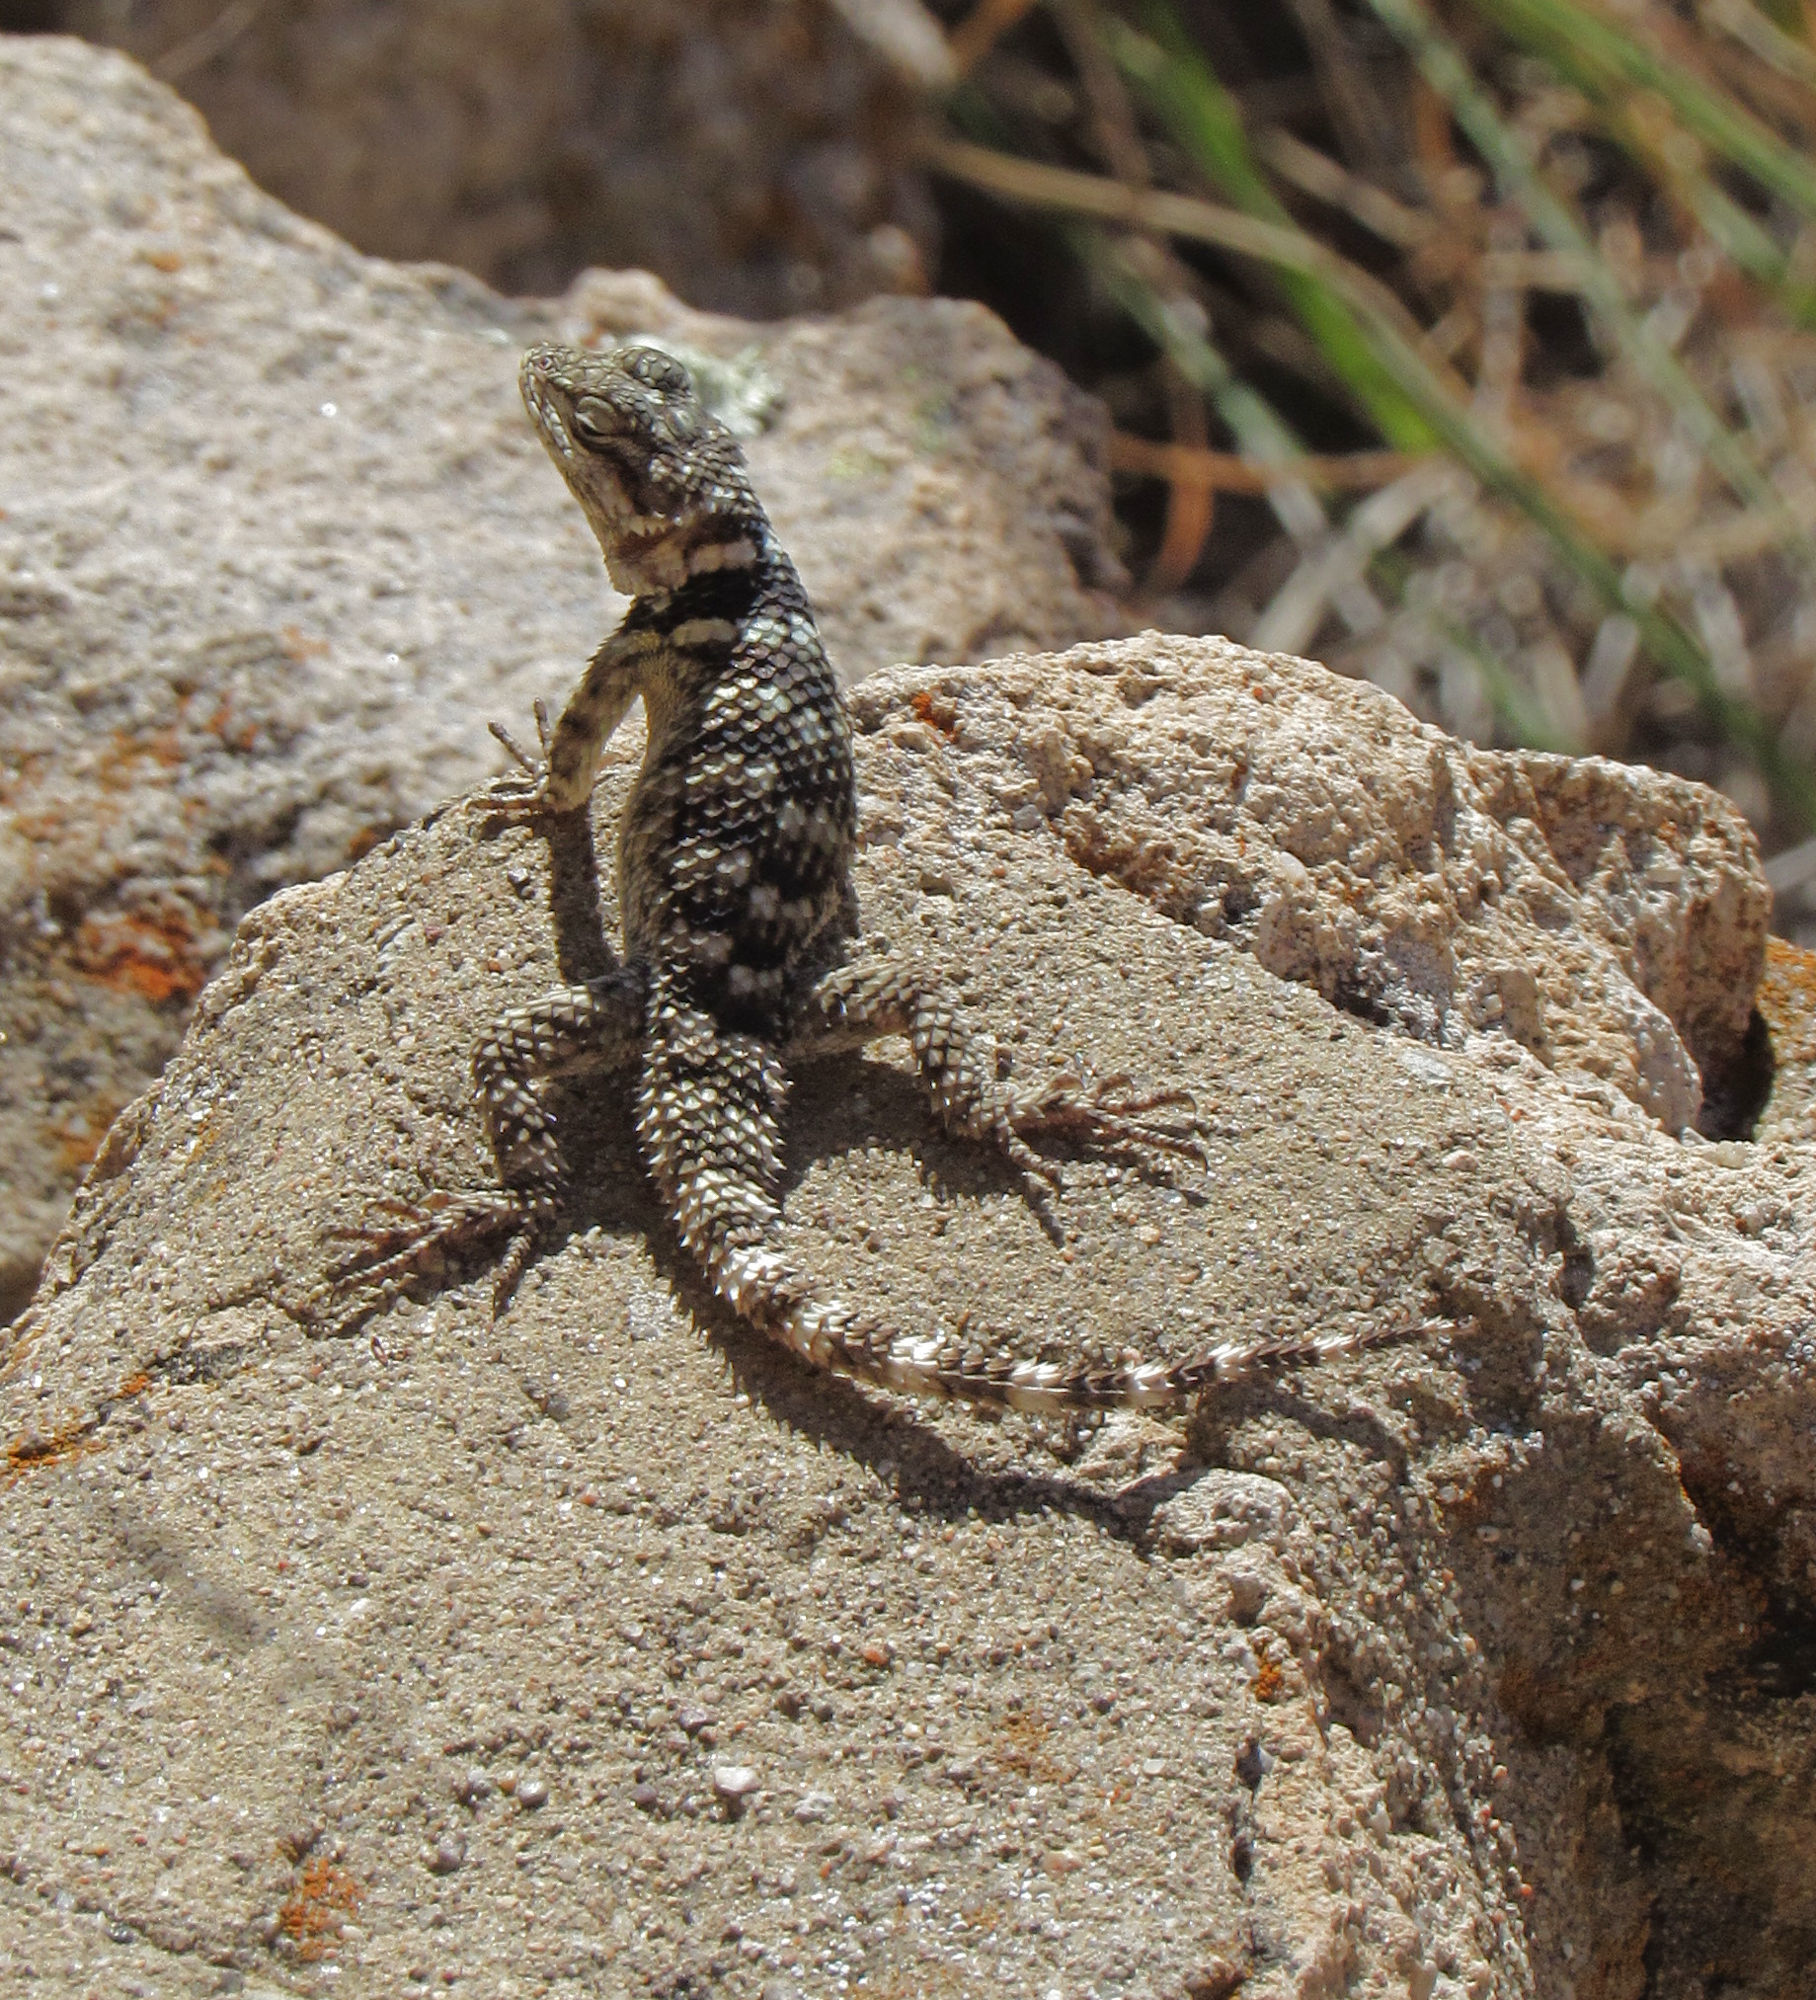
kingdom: Animalia
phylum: Chordata
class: Squamata
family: Phrynosomatidae
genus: Sceloporus
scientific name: Sceloporus poinsettii
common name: Crevice spiny lizard
